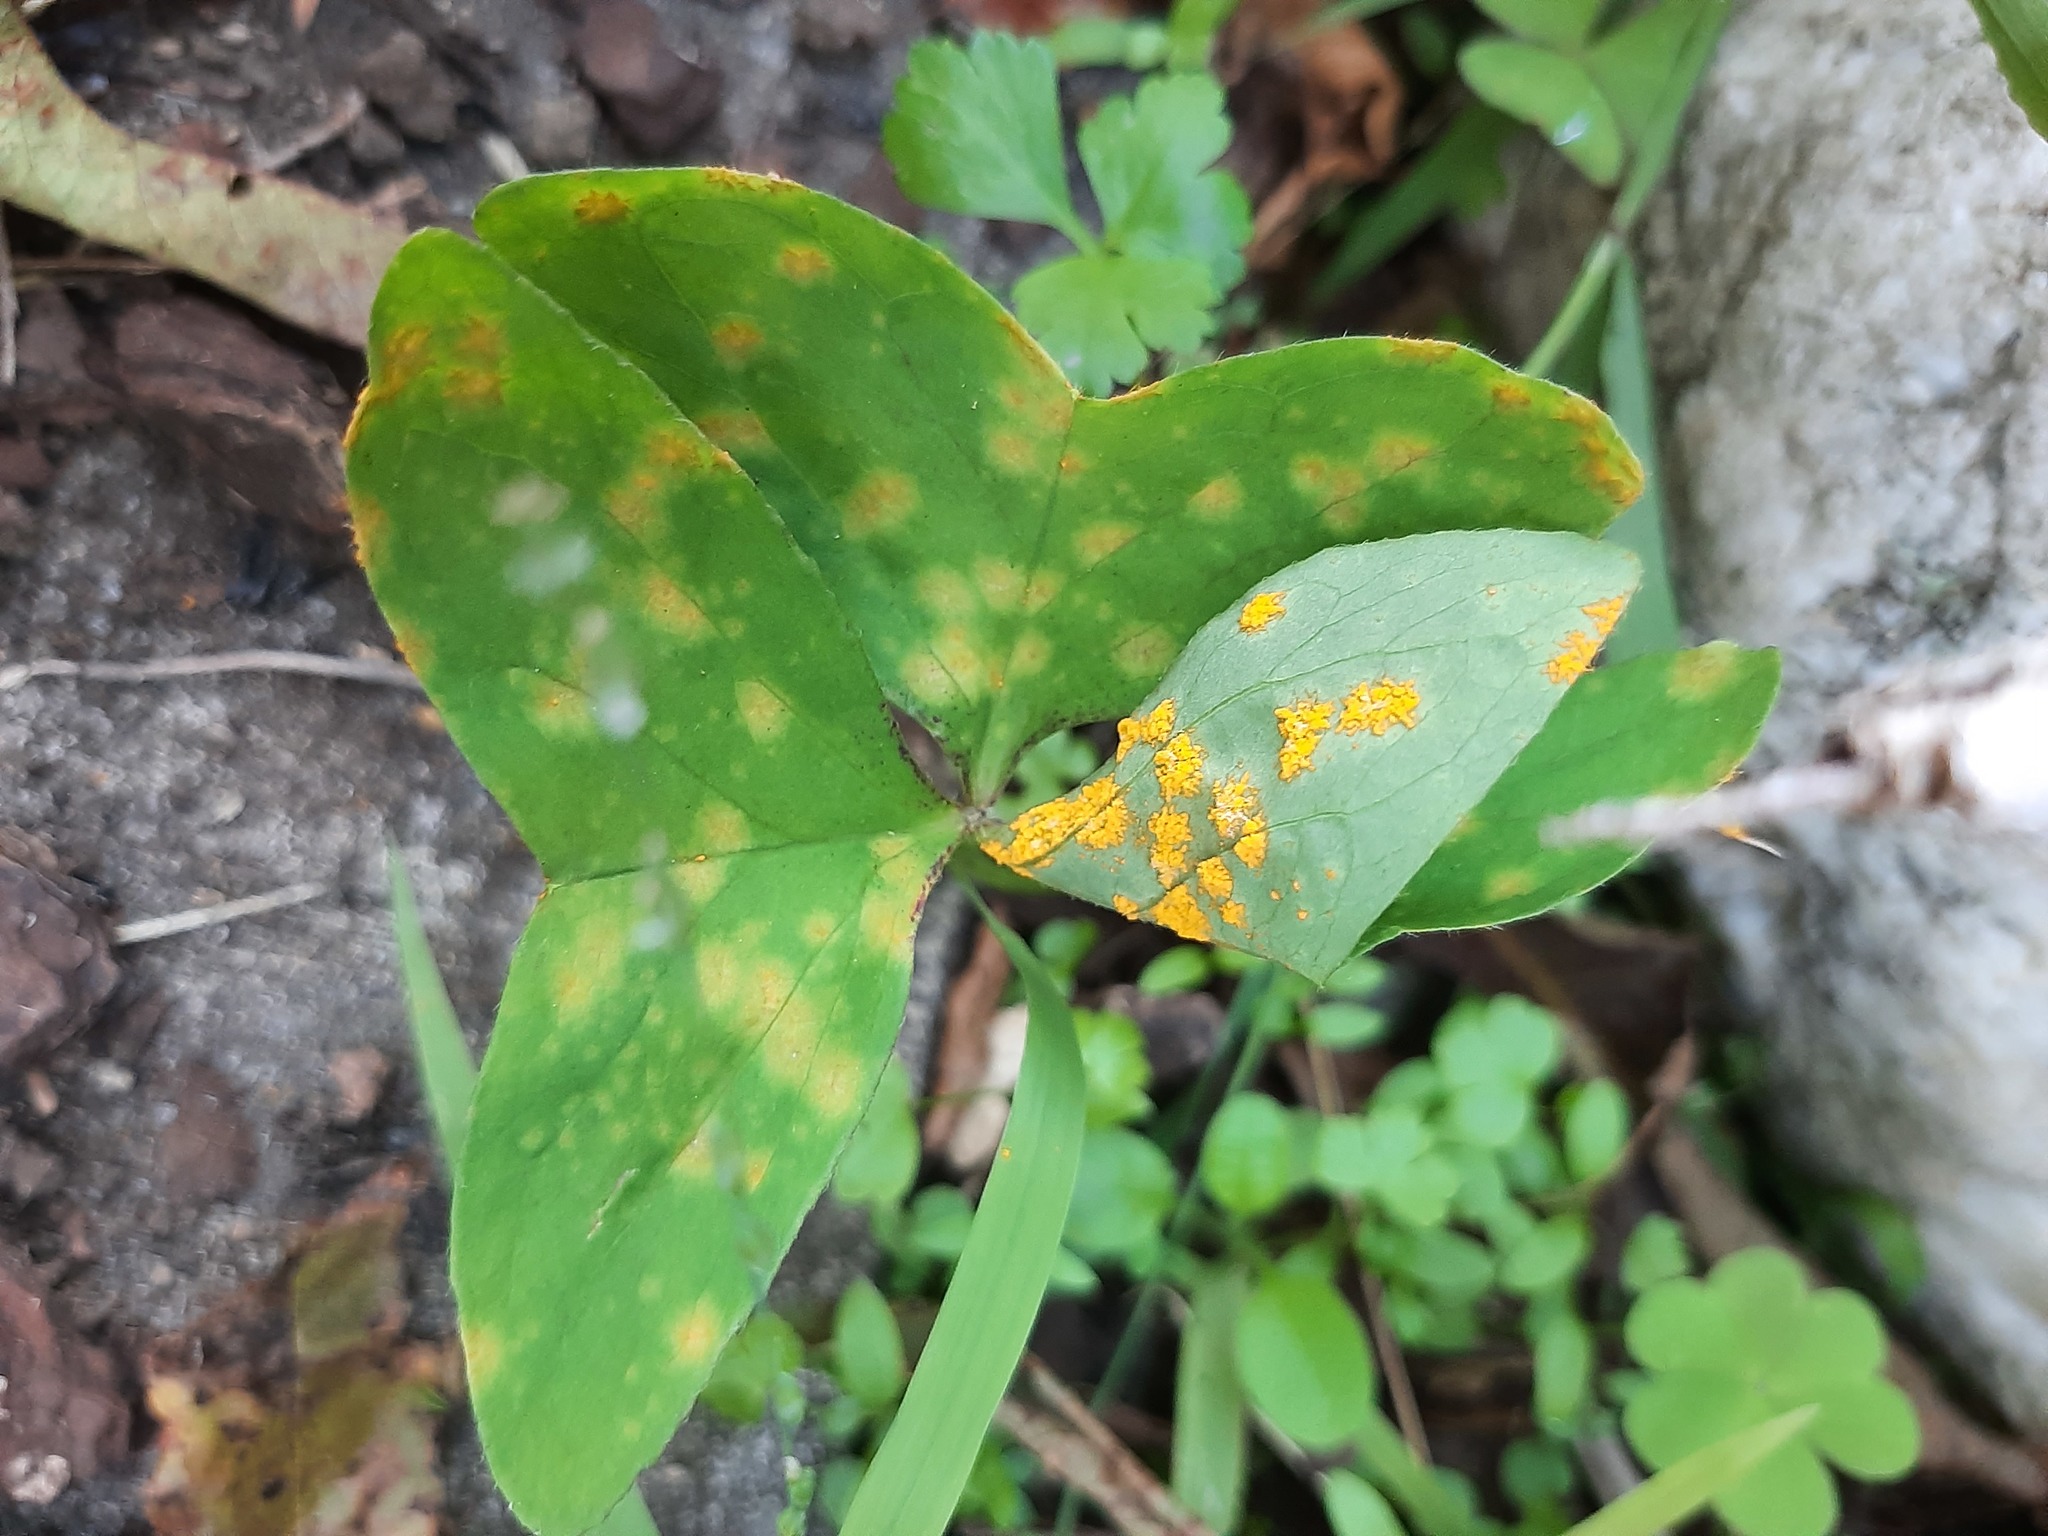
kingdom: Fungi
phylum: Basidiomycota
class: Pucciniomycetes
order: Pucciniales
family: Pucciniaceae
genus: Puccinia
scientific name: Puccinia oxalidis
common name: Oxalis rust
